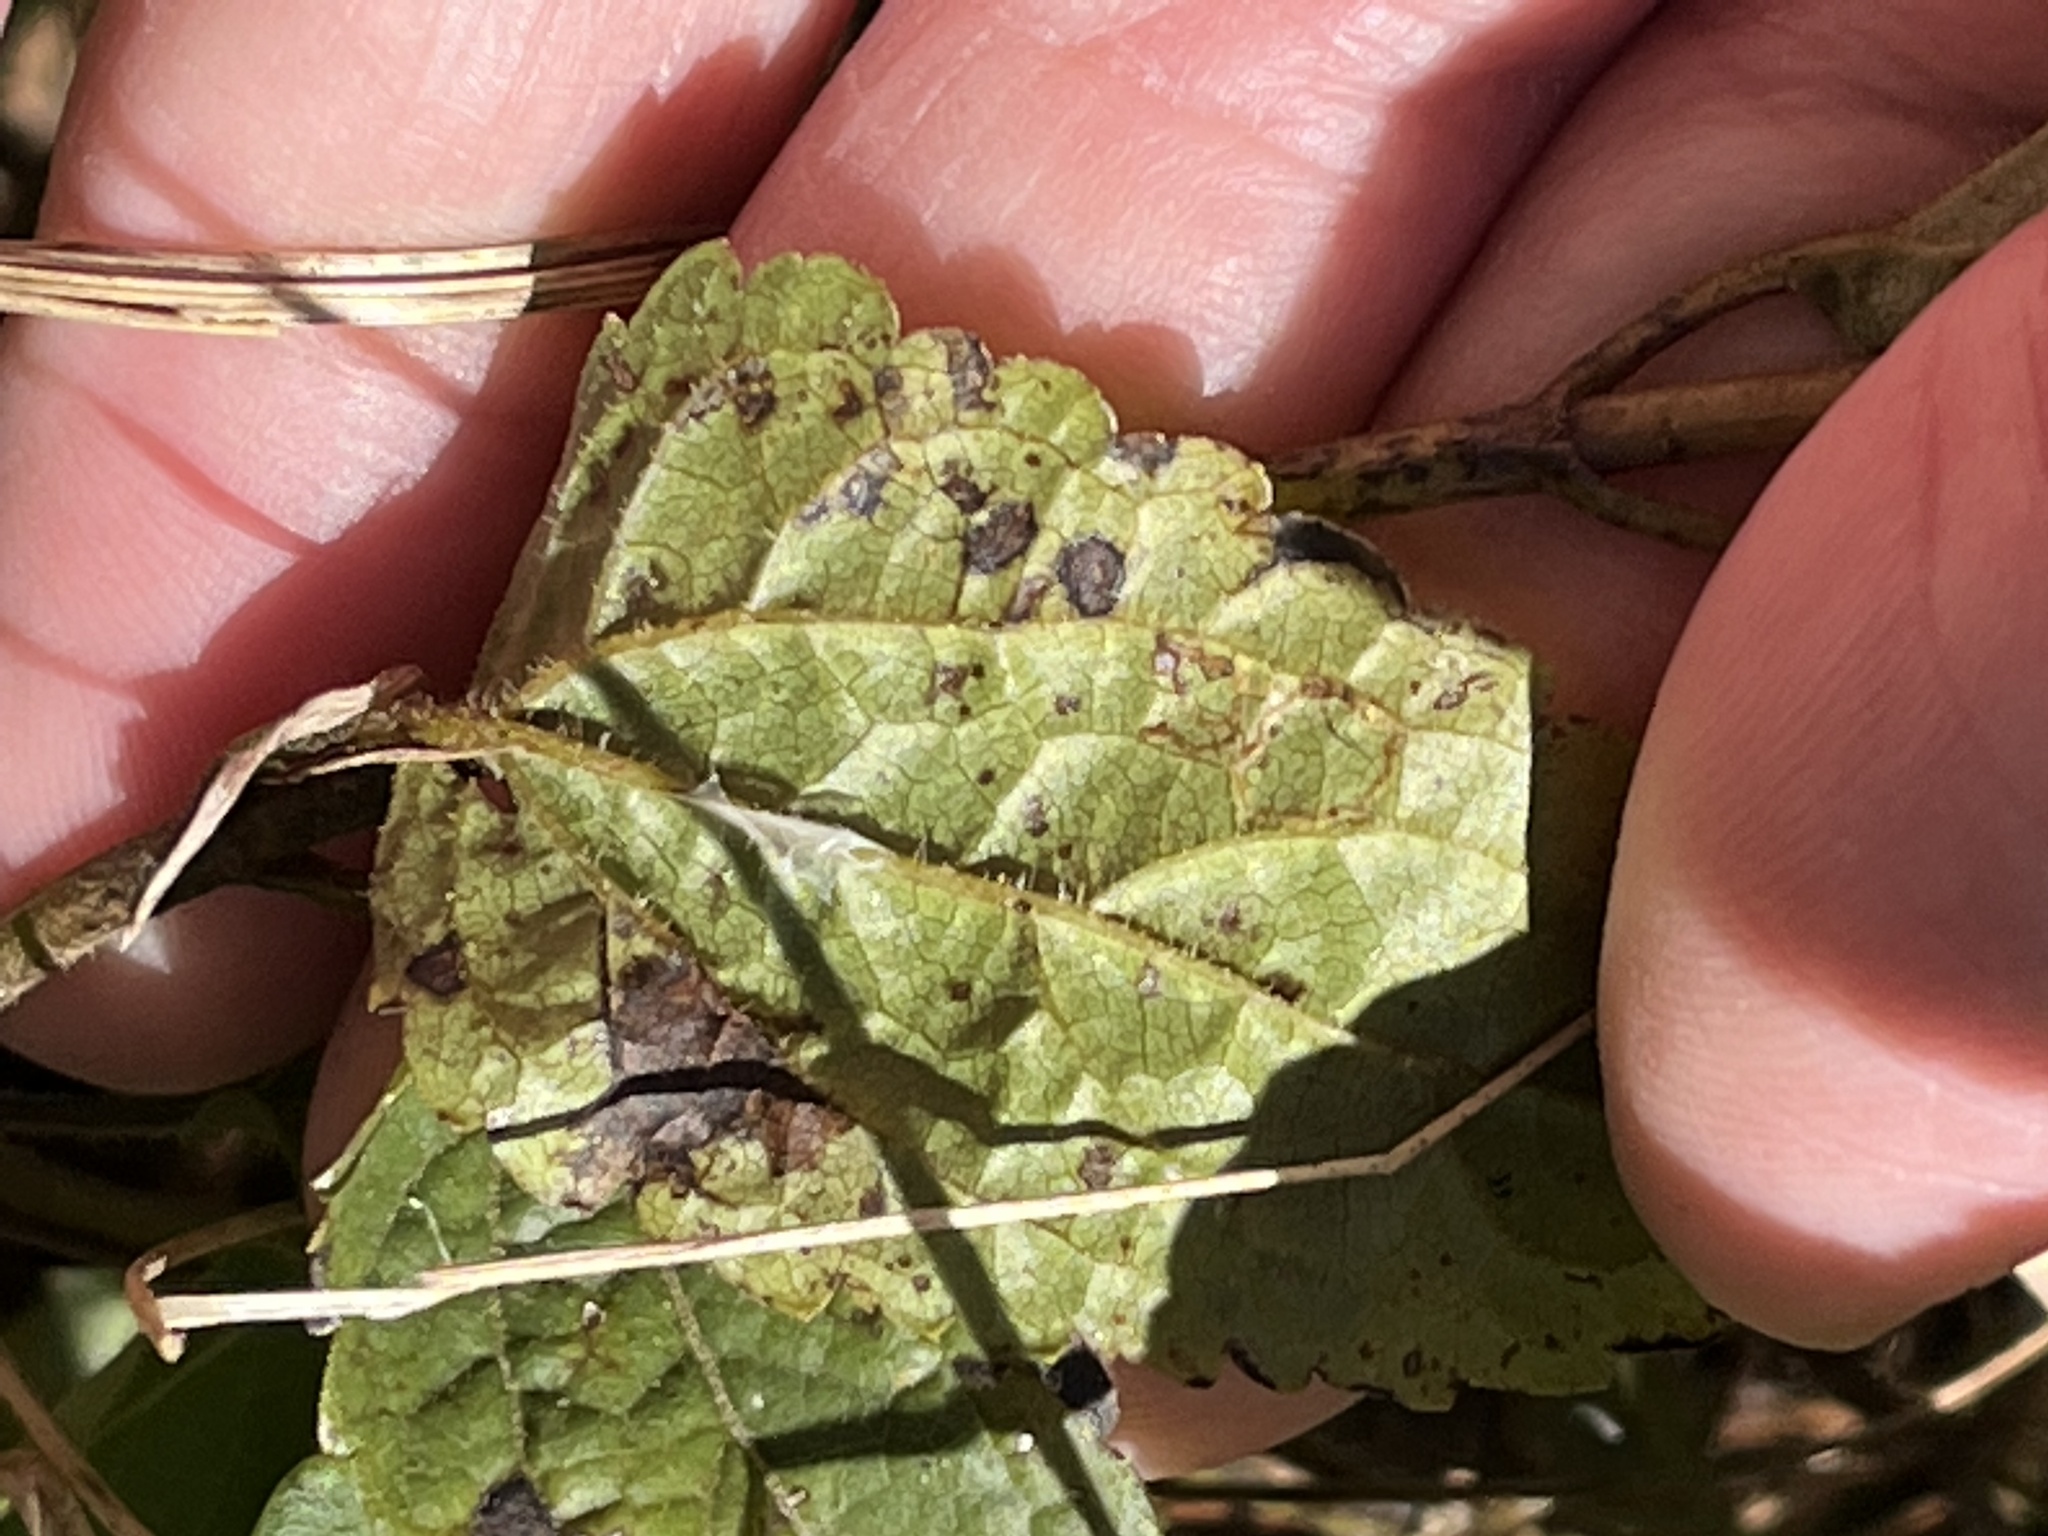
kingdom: Plantae
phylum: Tracheophyta
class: Magnoliopsida
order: Asterales
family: Asteraceae
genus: Ageratina
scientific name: Ageratina aromatica
